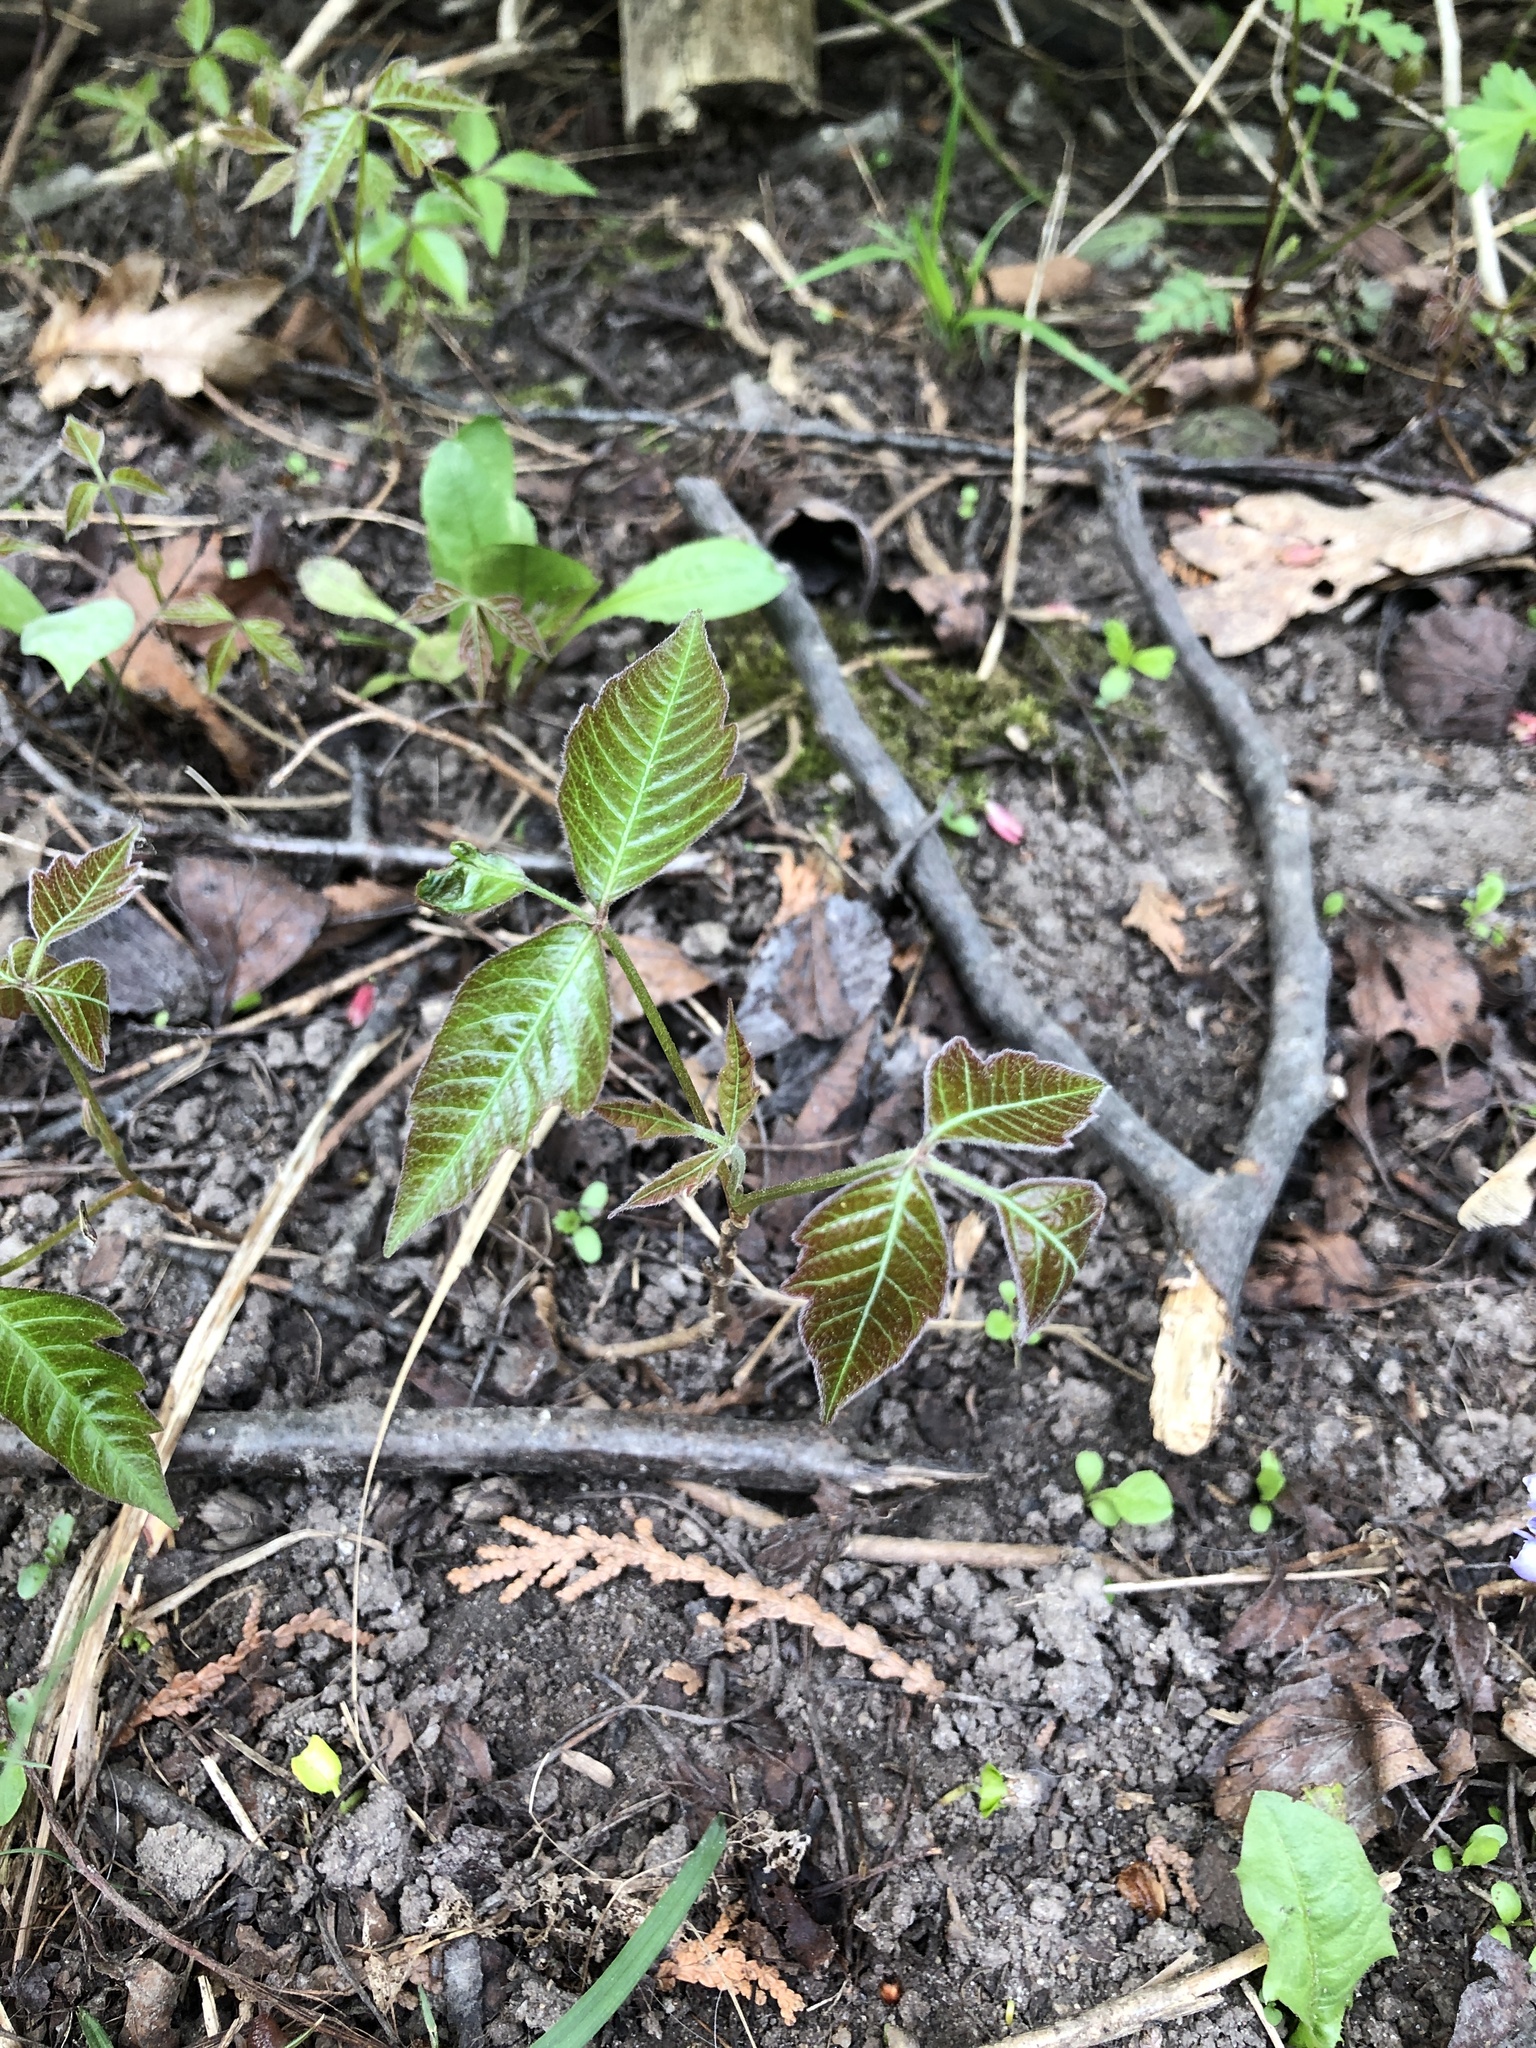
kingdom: Plantae
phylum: Tracheophyta
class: Magnoliopsida
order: Sapindales
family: Anacardiaceae
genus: Toxicodendron
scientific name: Toxicodendron radicans
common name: Poison ivy
